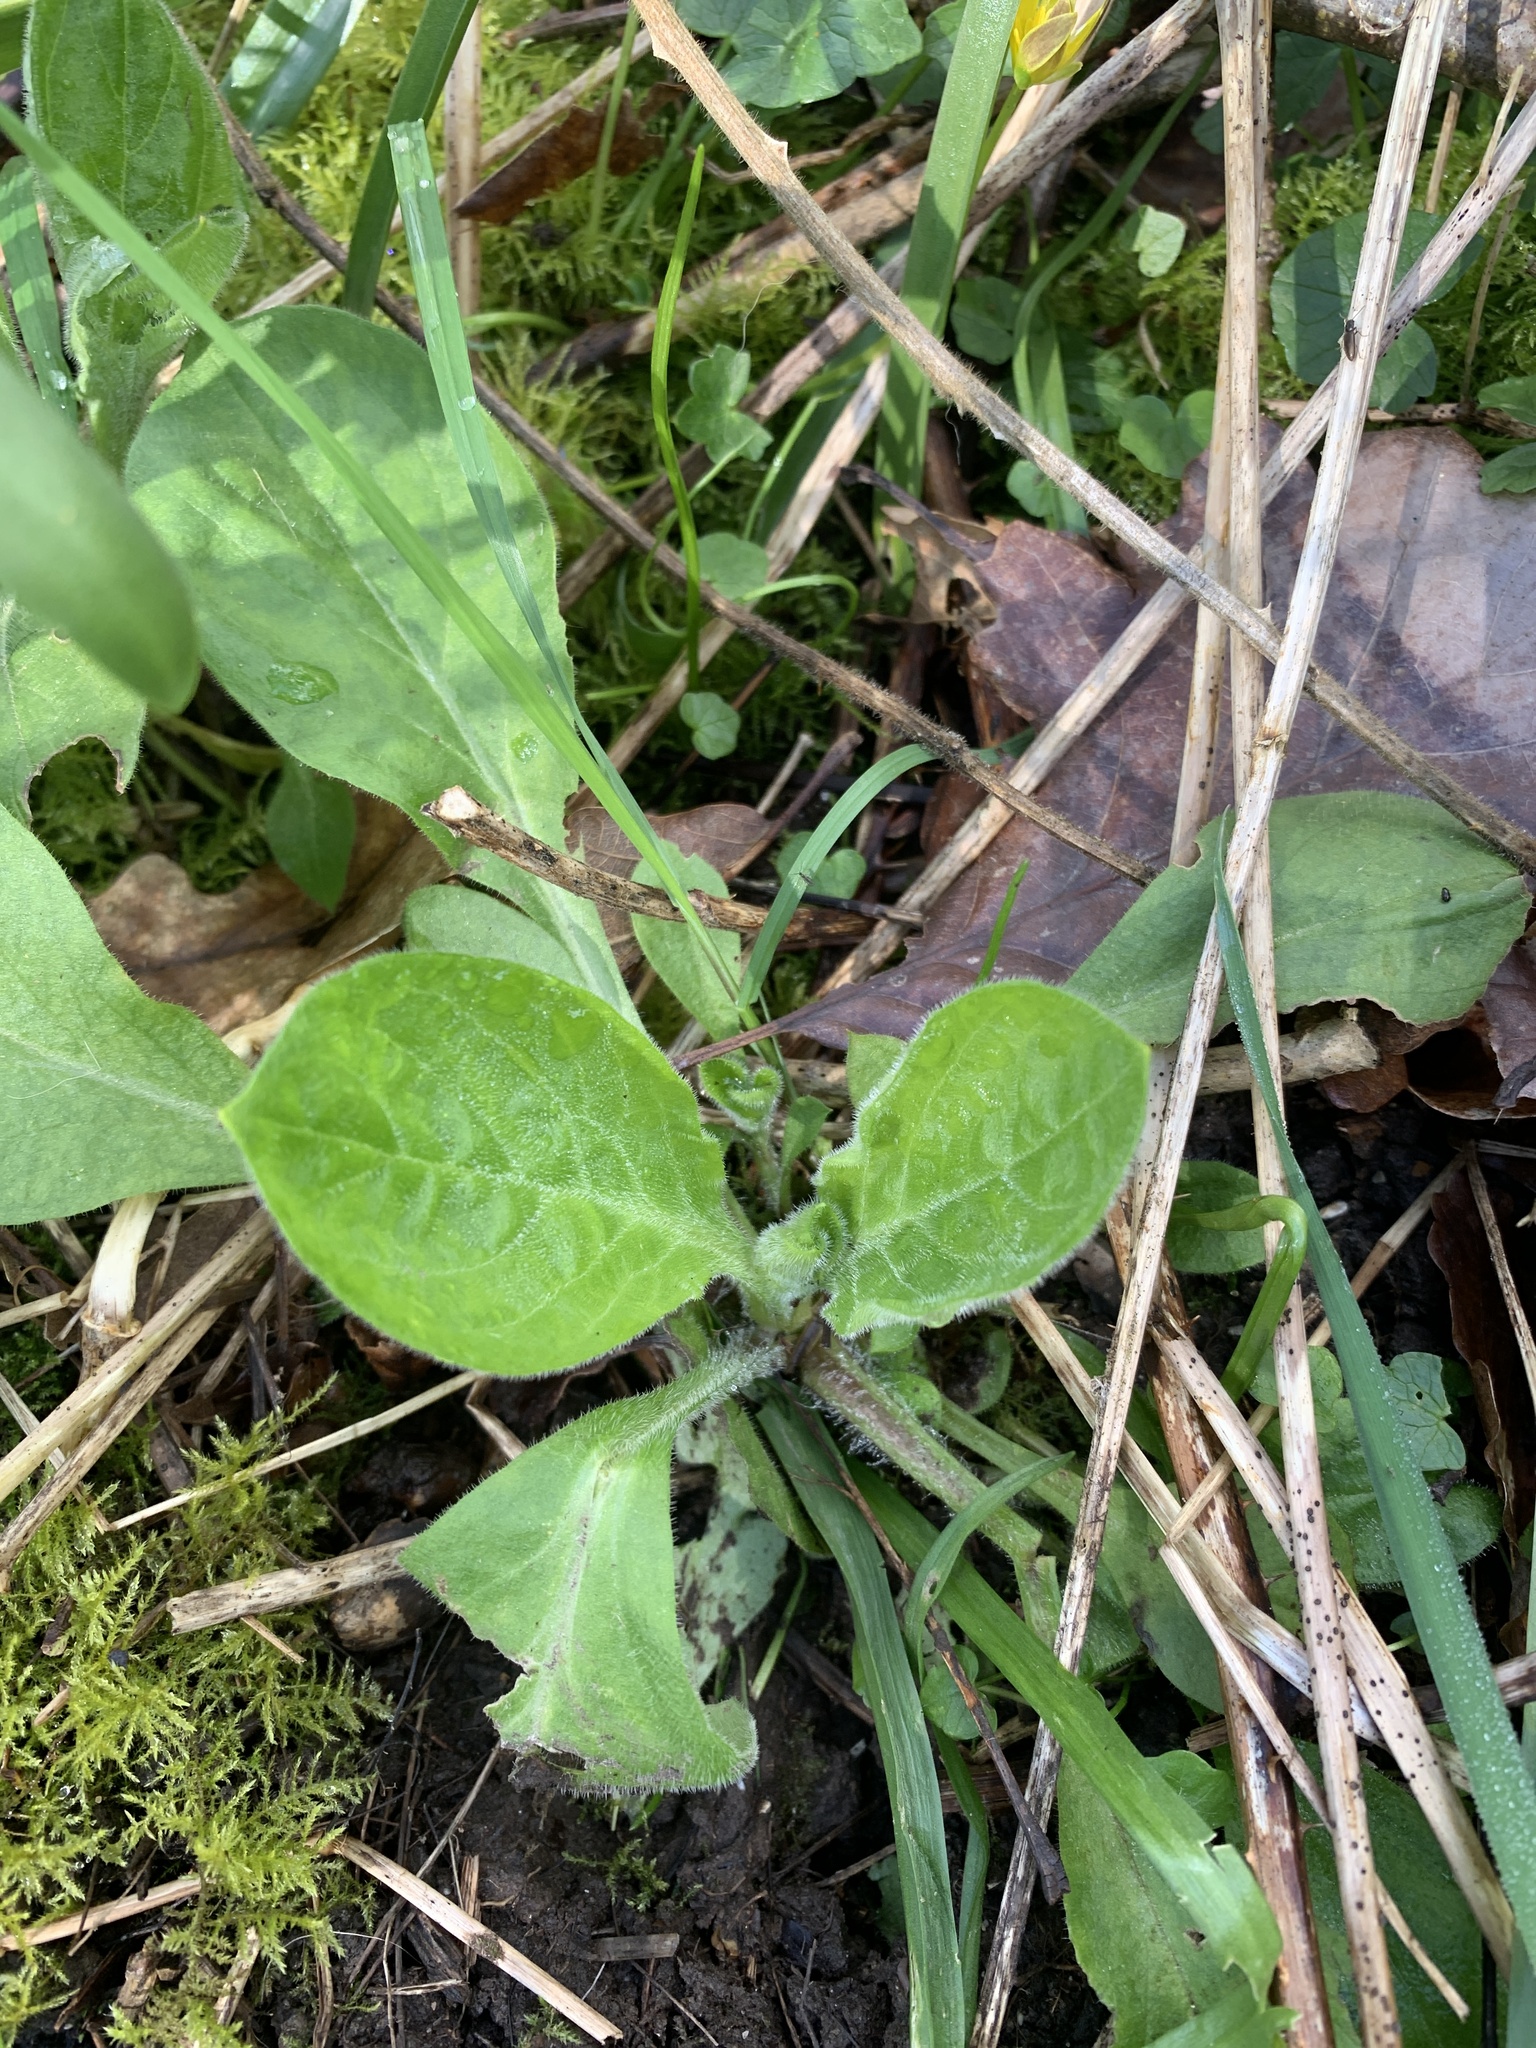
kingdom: Plantae
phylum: Tracheophyta
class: Magnoliopsida
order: Caryophyllales
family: Caryophyllaceae
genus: Silene
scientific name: Silene dioica
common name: Red campion
